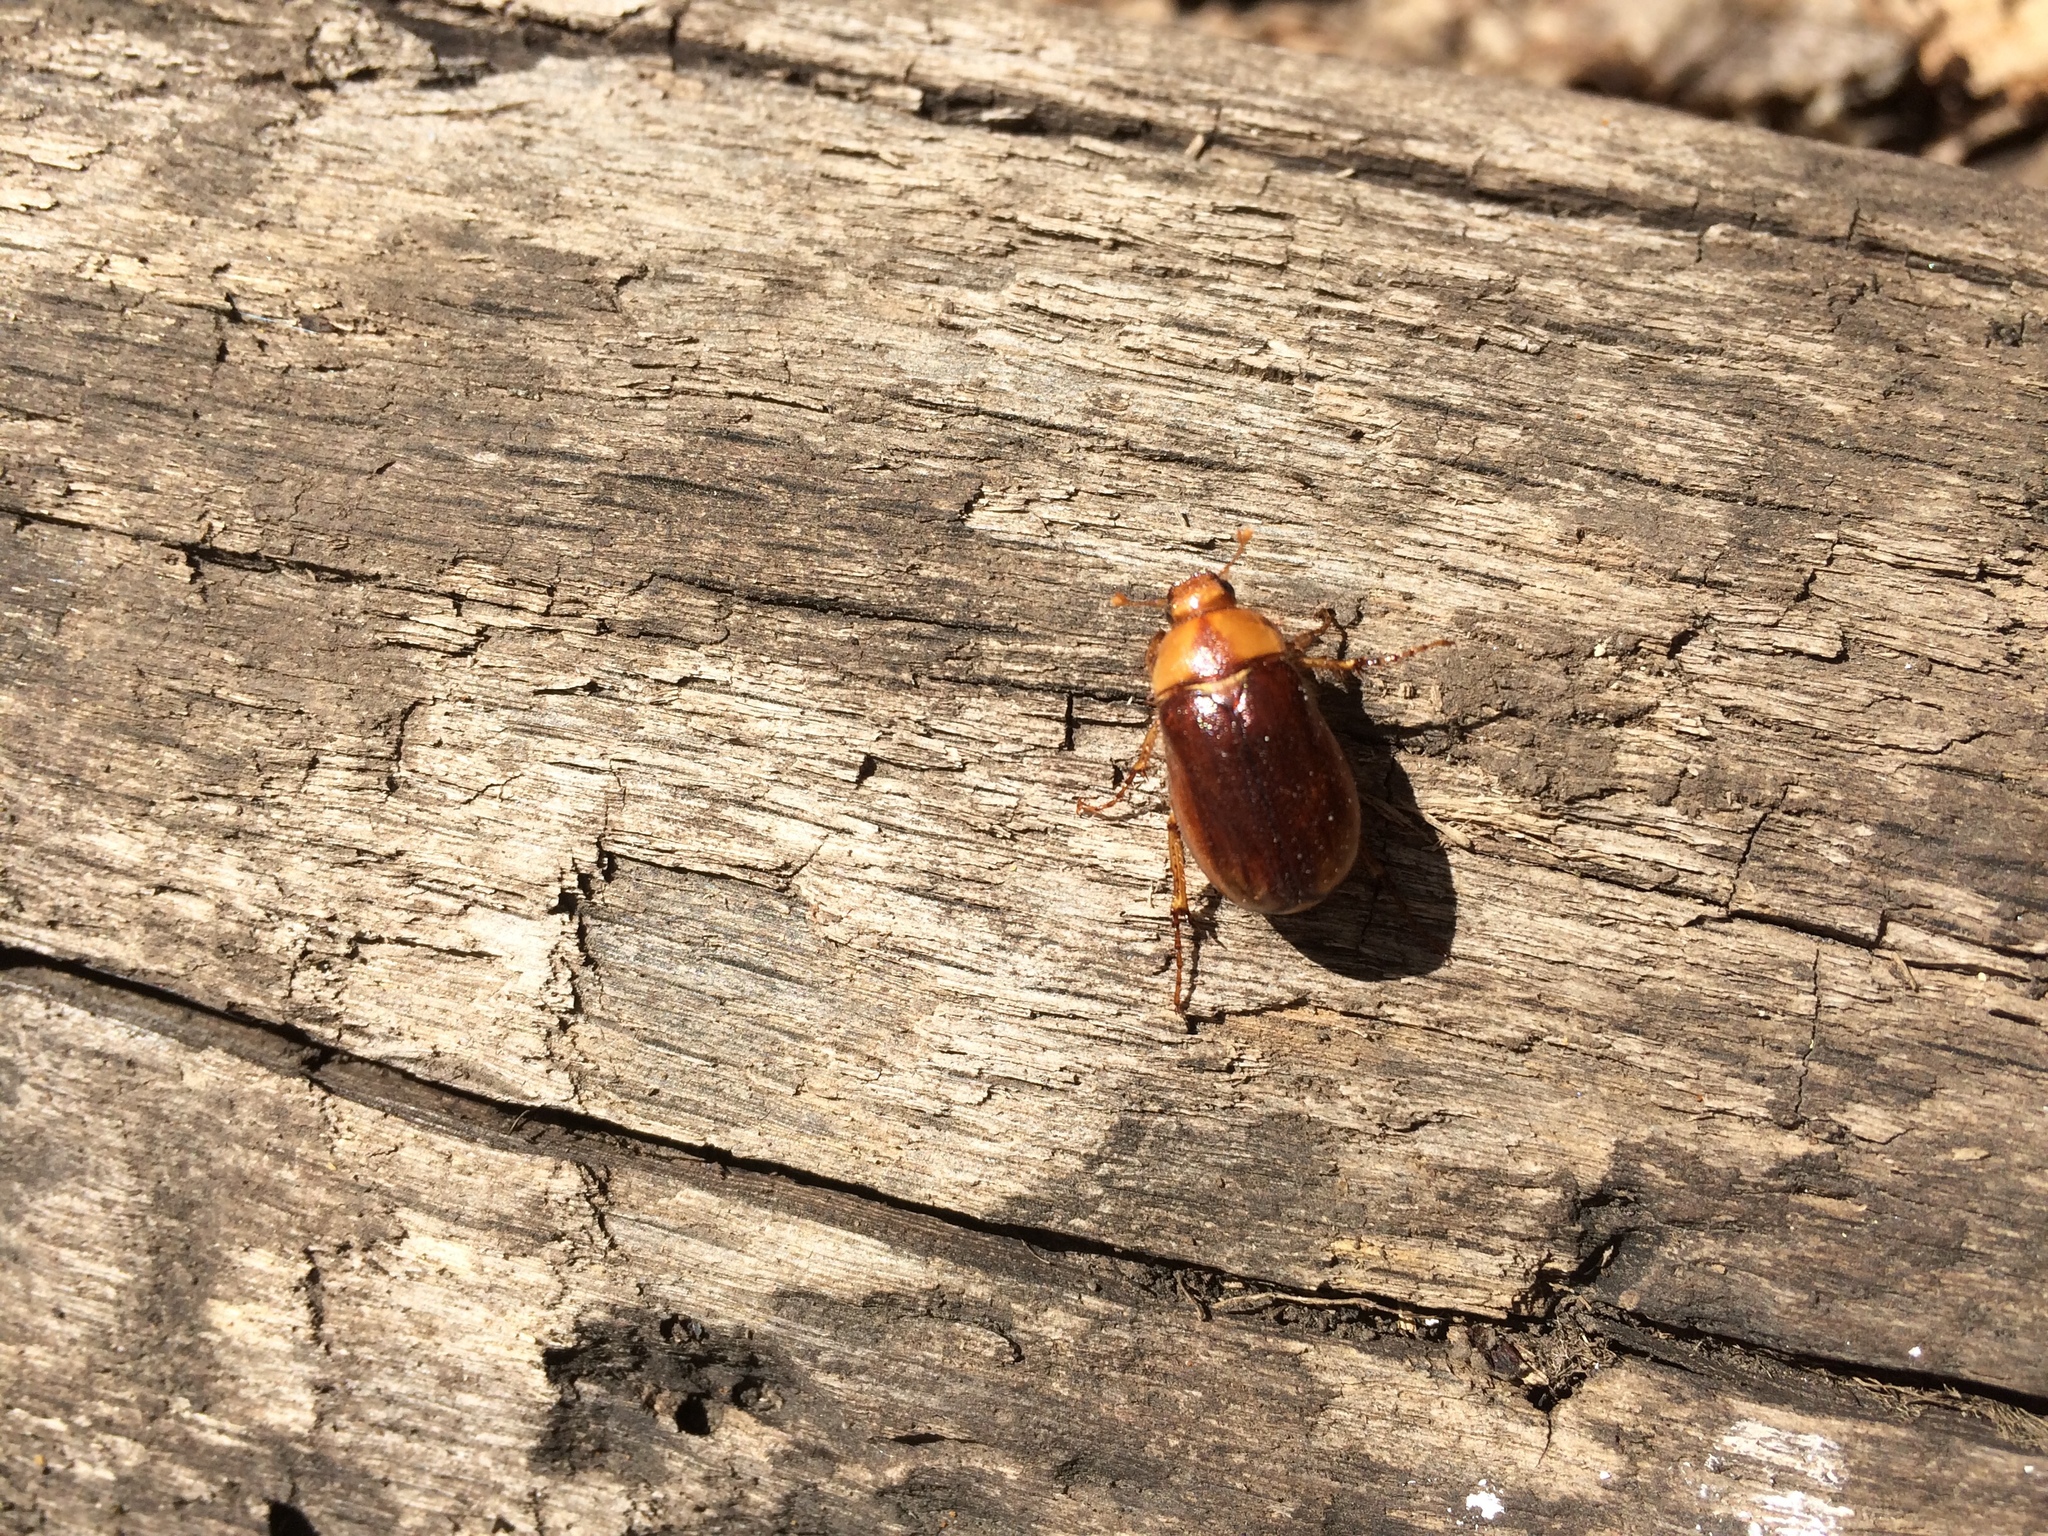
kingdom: Animalia
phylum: Arthropoda
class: Insecta
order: Coleoptera
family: Scarabaeidae
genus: Rhizotrogus
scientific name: Rhizotrogus aestivus
